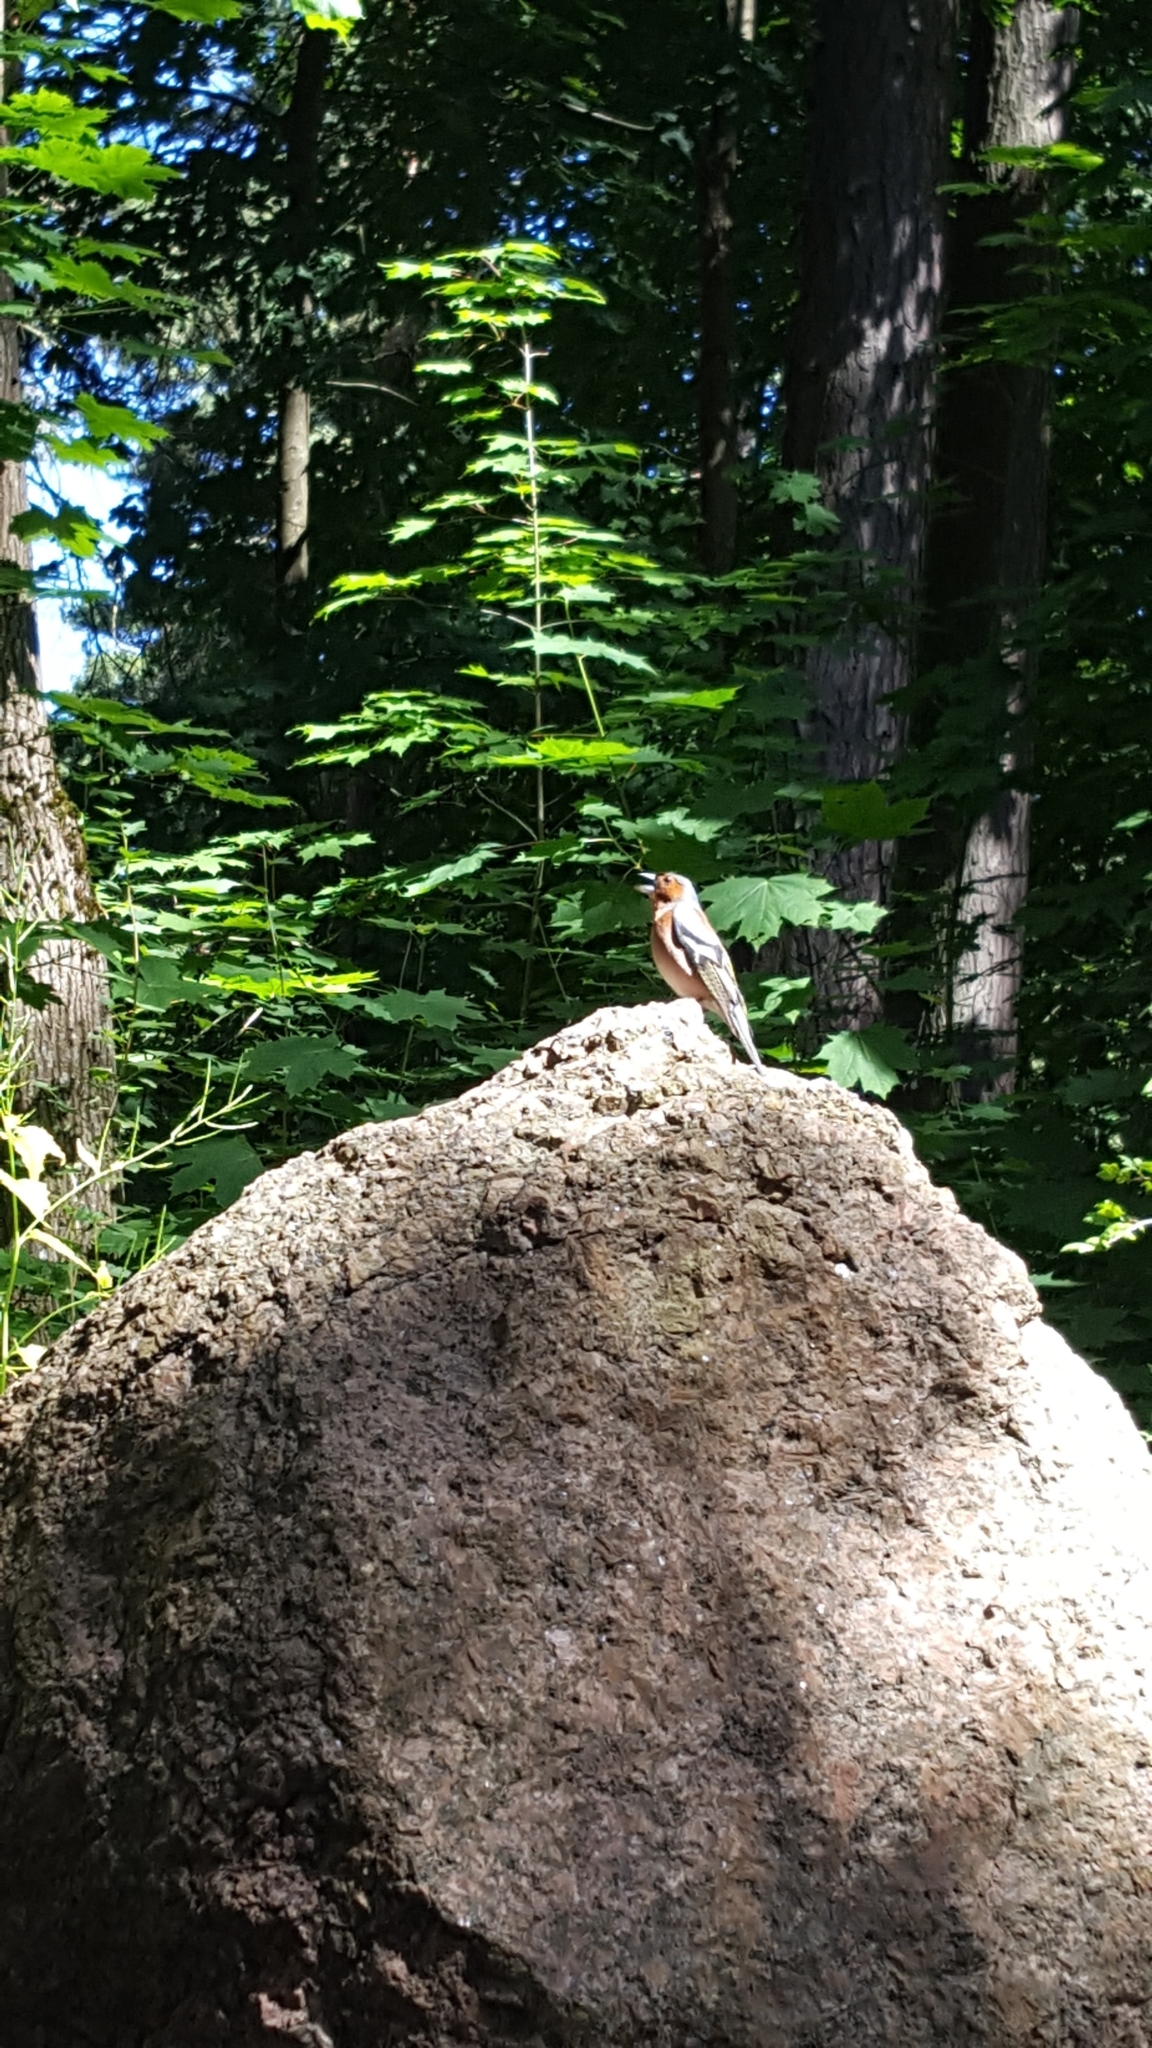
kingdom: Animalia
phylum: Chordata
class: Aves
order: Passeriformes
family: Fringillidae
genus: Fringilla
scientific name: Fringilla coelebs
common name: Common chaffinch
